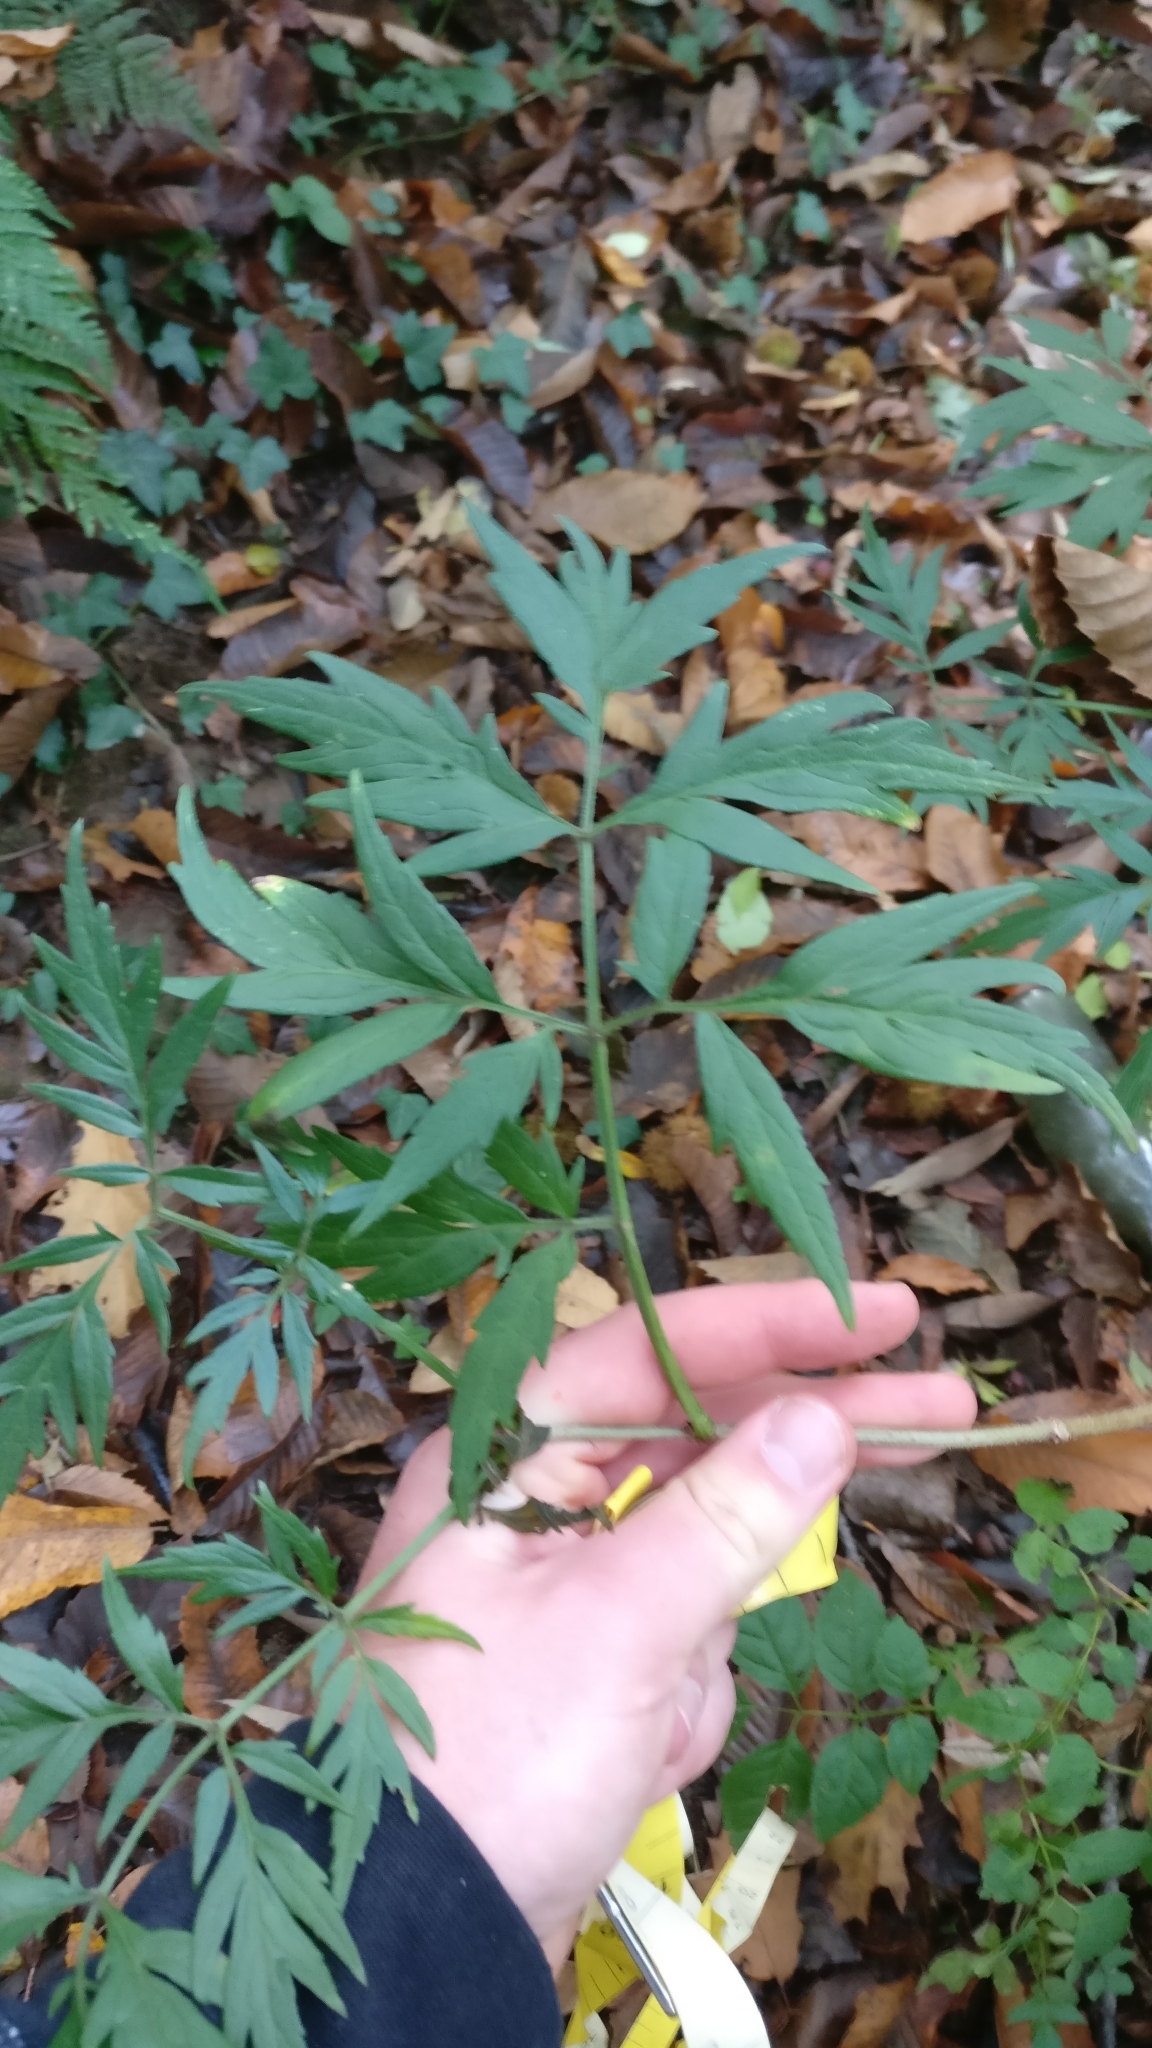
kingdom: Plantae
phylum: Tracheophyta
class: Magnoliopsida
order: Dipsacales
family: Viburnaceae
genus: Sambucus
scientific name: Sambucus nigra
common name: Elder
